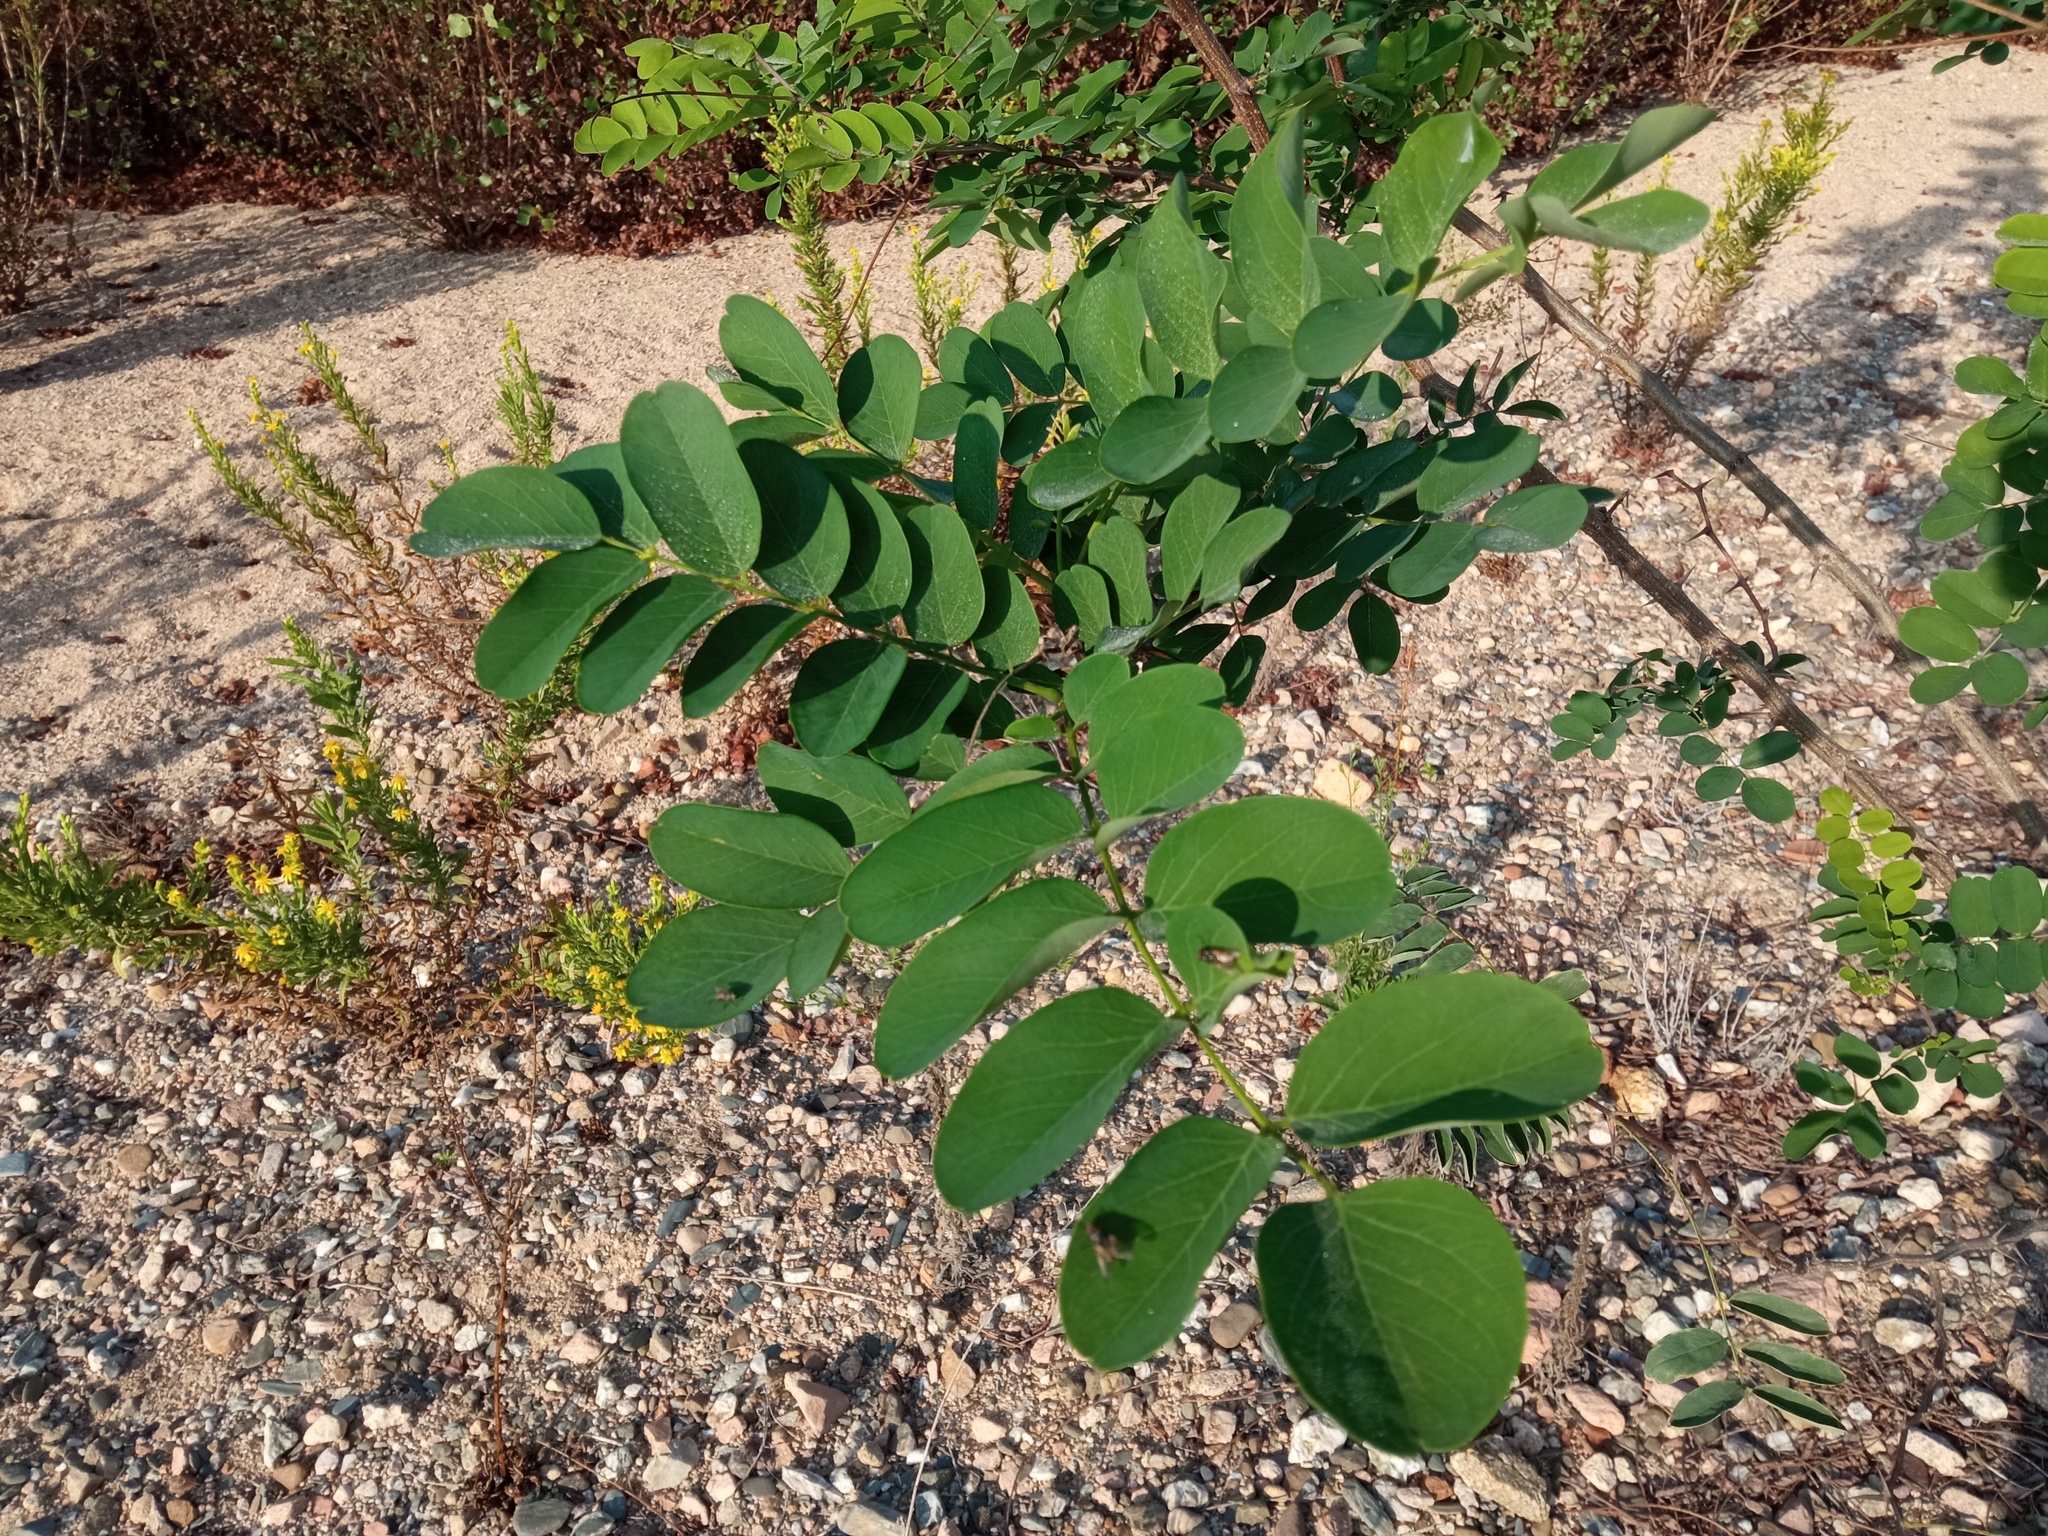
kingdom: Plantae
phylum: Tracheophyta
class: Magnoliopsida
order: Fabales
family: Fabaceae
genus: Robinia
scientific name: Robinia pseudoacacia
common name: Black locust
